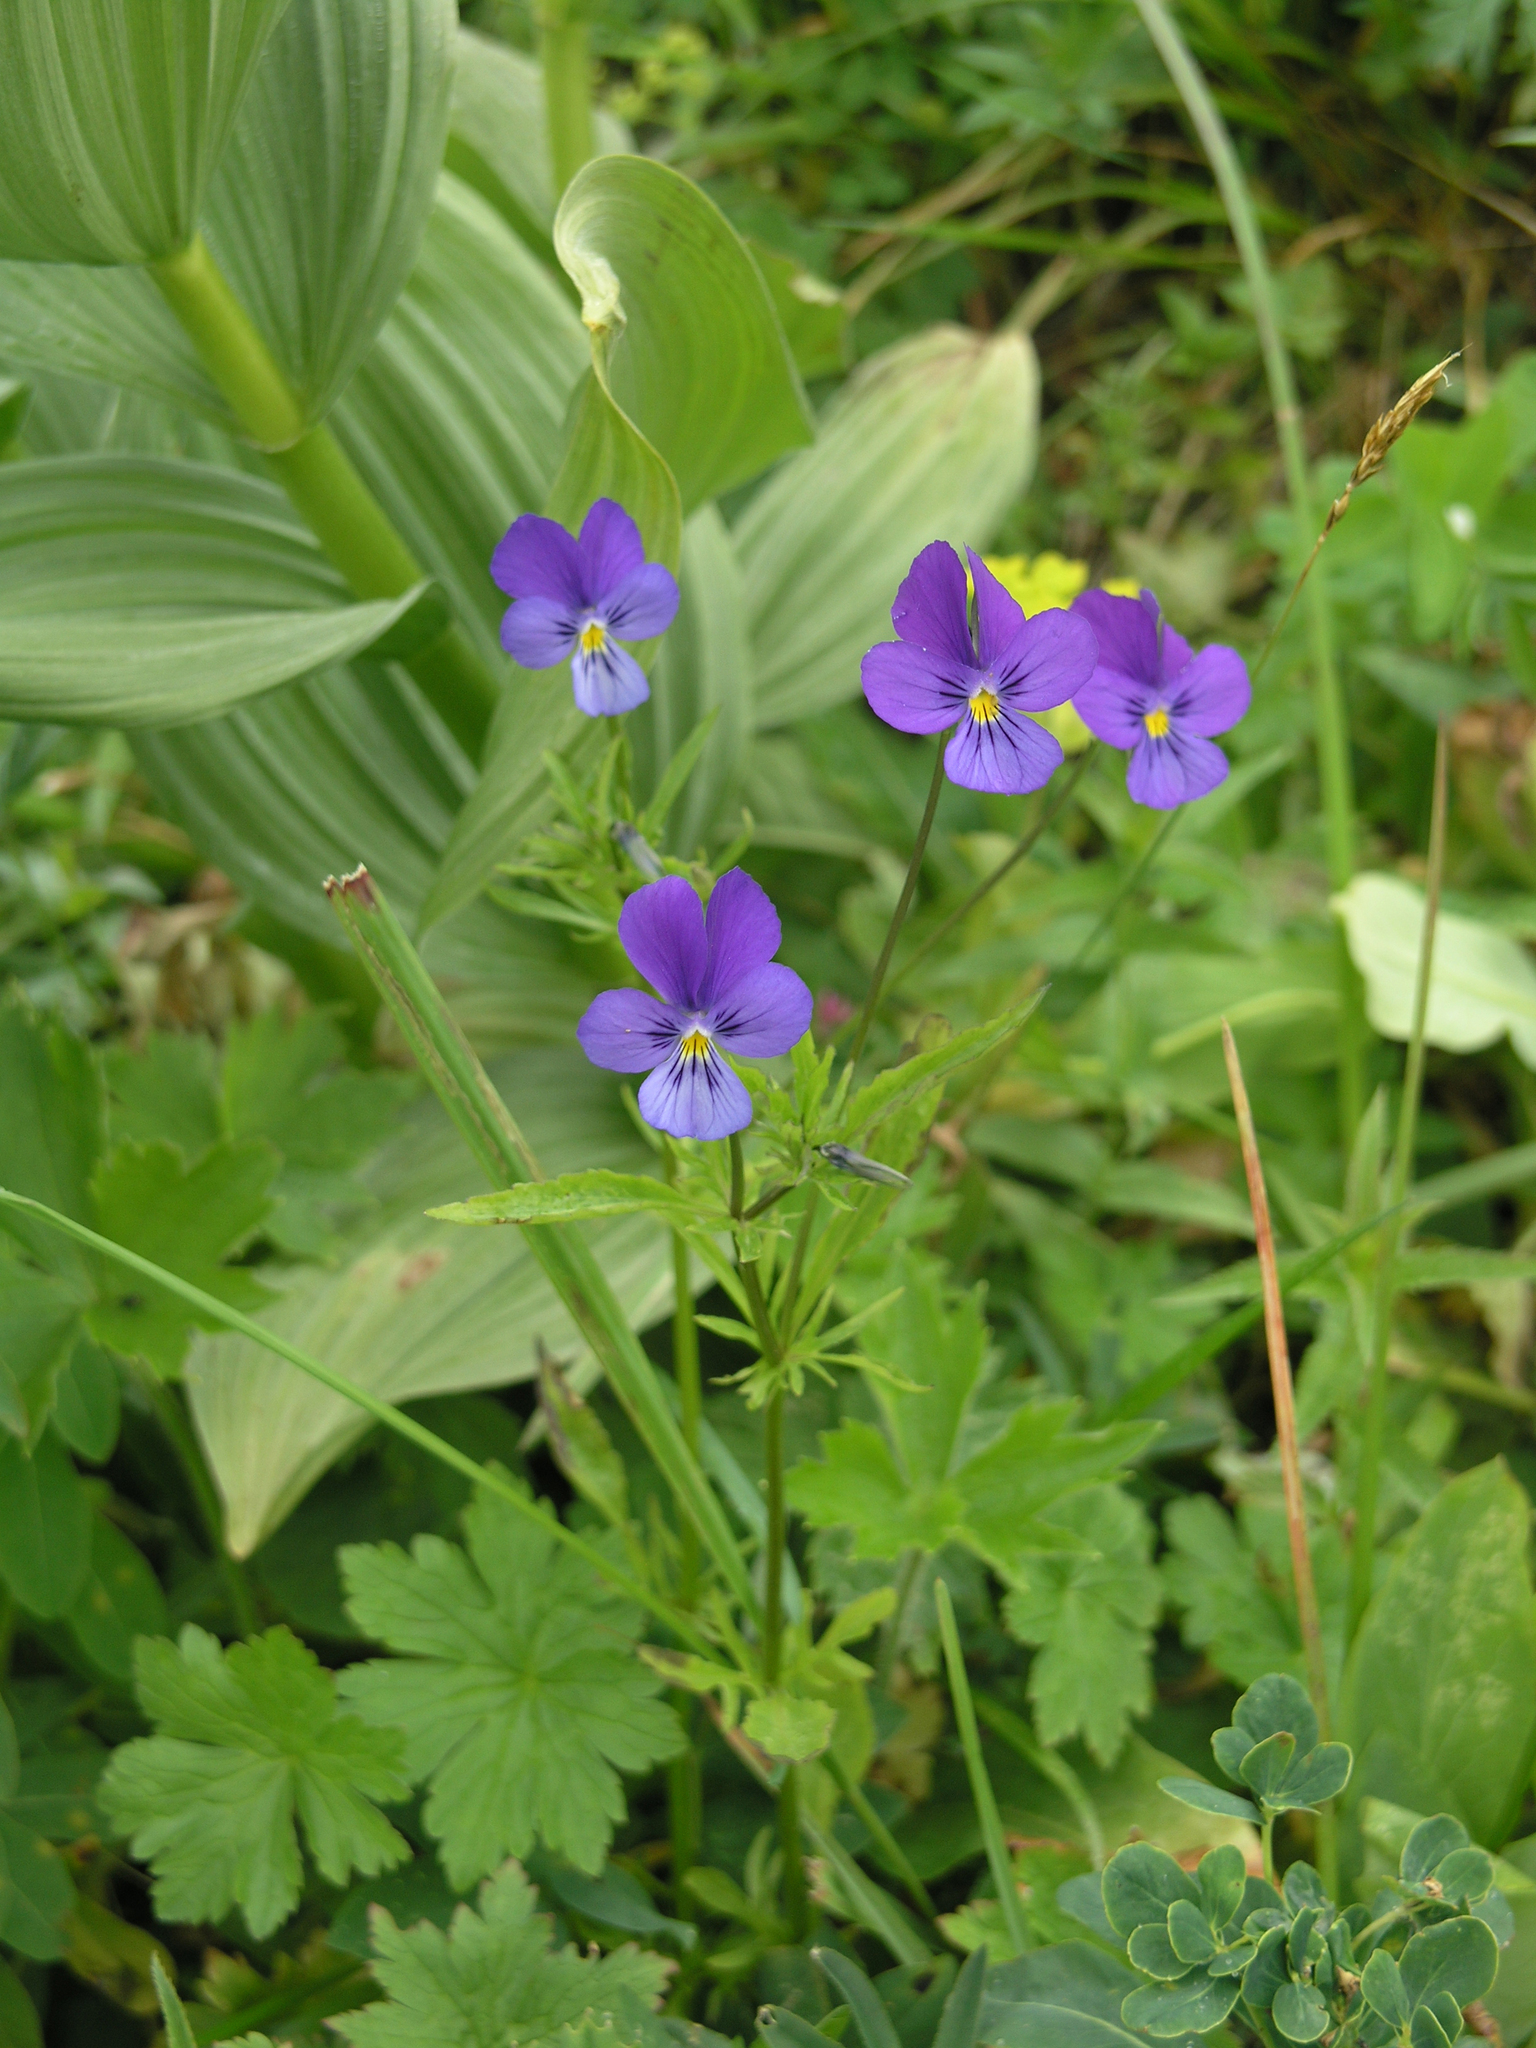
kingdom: Plantae
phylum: Tracheophyta
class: Liliopsida
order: Liliales
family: Melanthiaceae
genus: Veratrum
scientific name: Veratrum lobelianum
